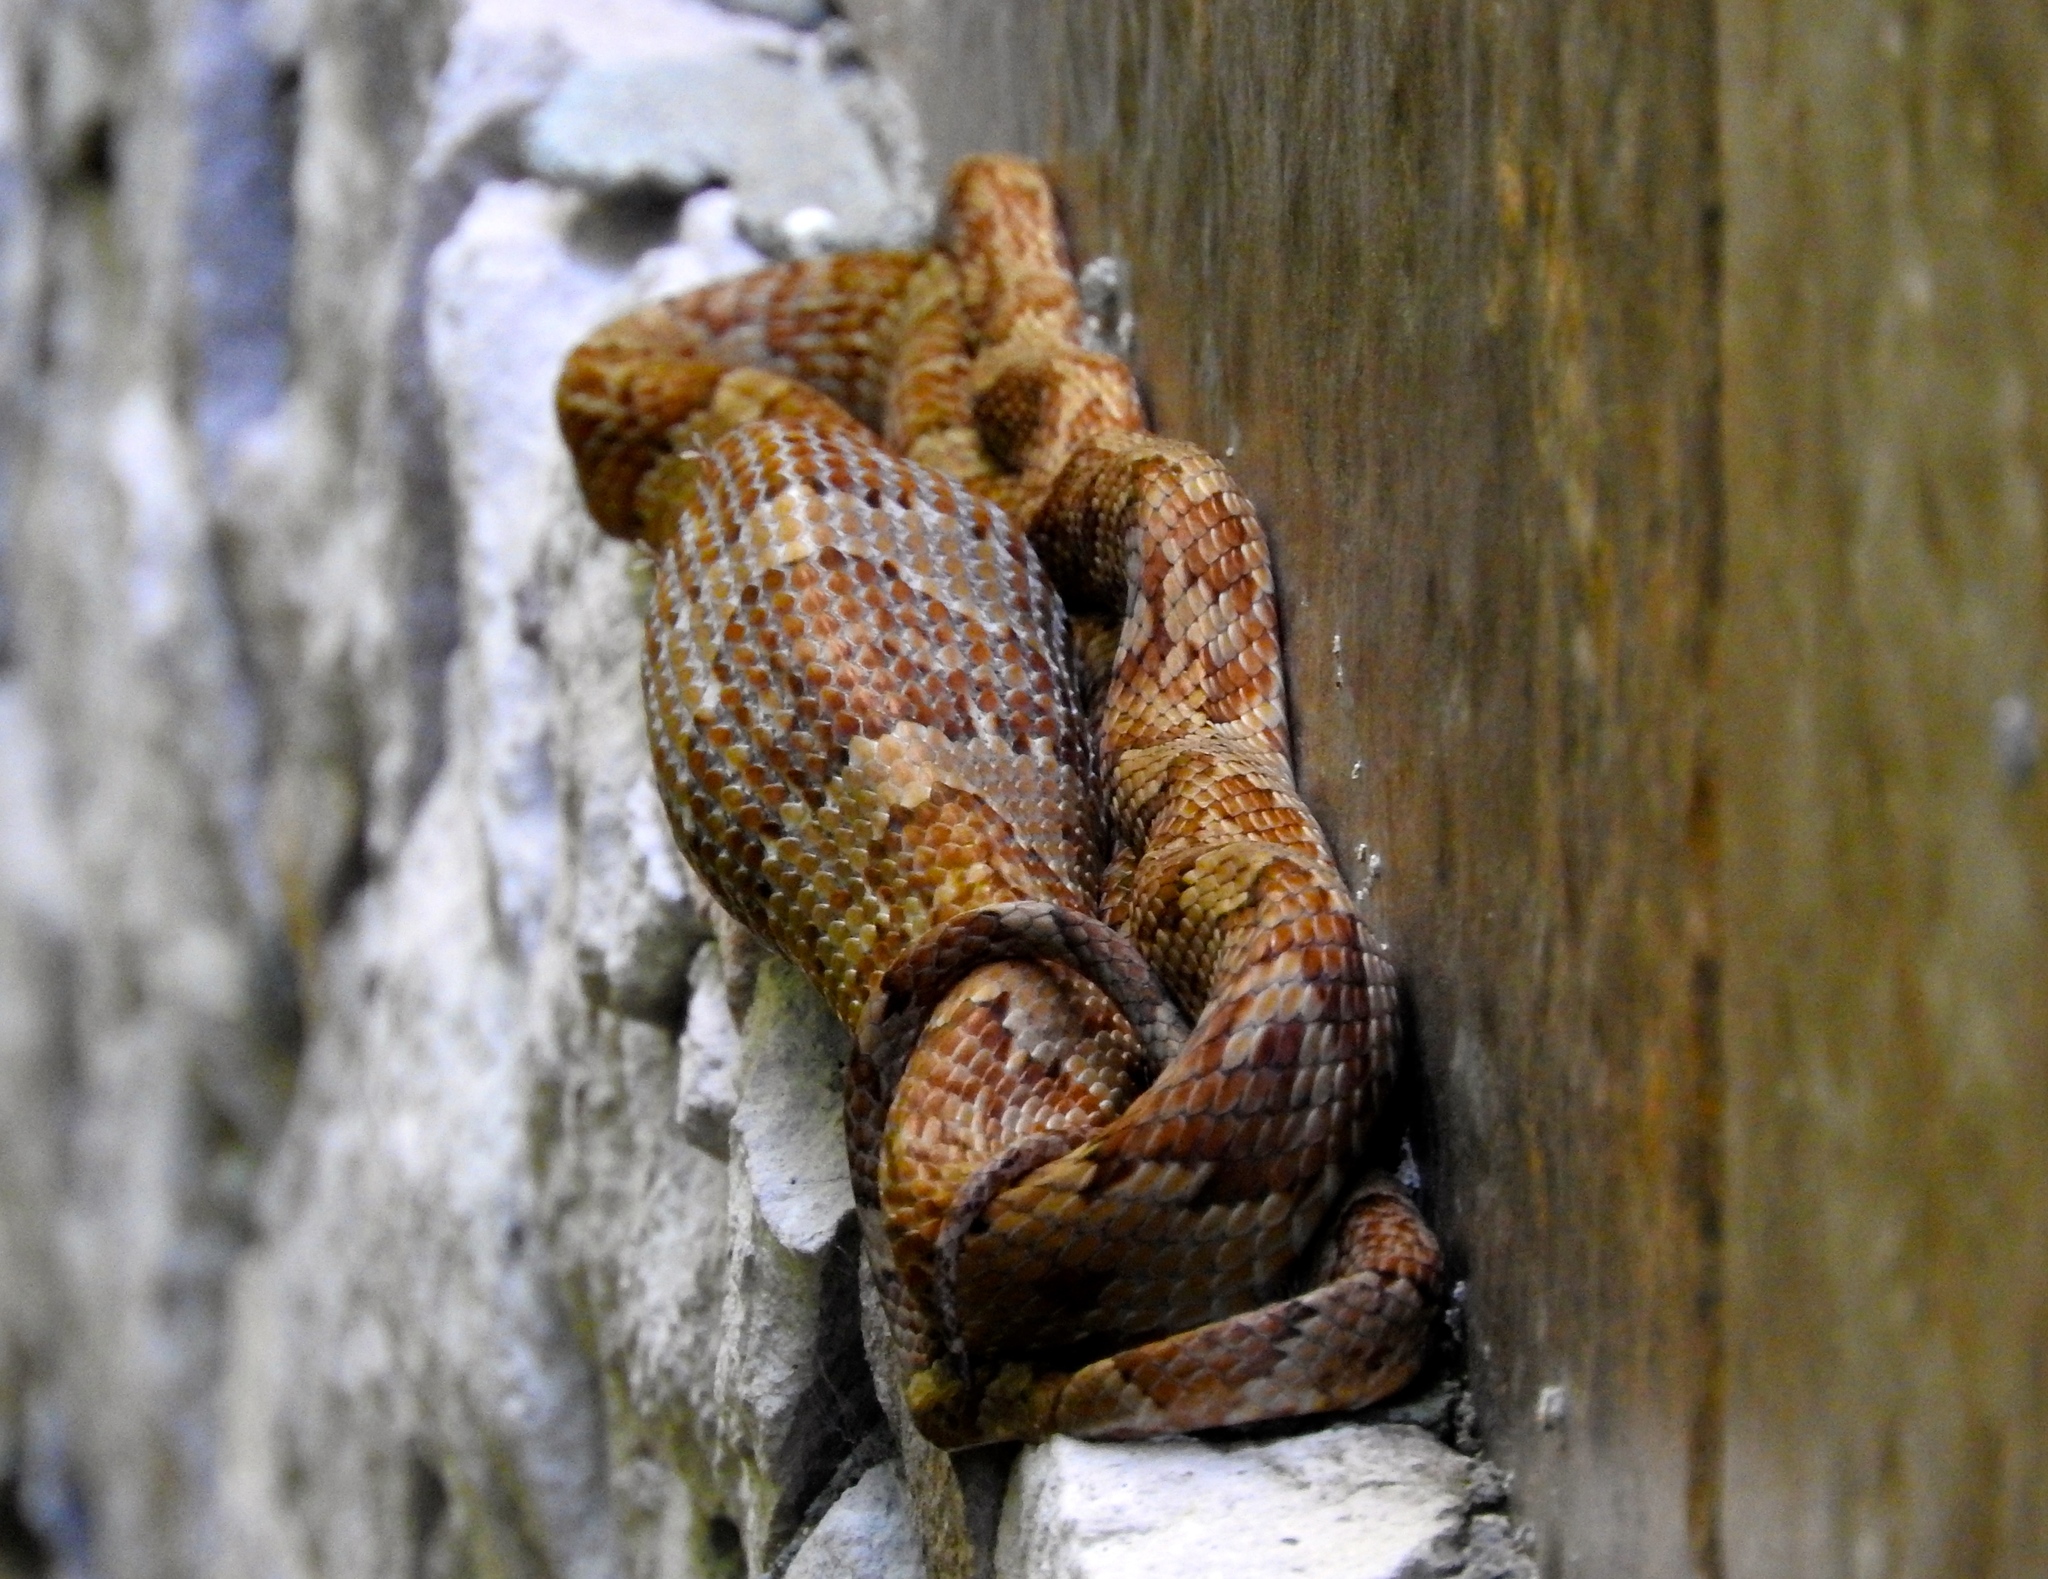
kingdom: Animalia
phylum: Chordata
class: Squamata
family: Colubridae
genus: Trimorphodon
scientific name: Trimorphodon paucimaculatus
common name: Sinaloan lyresnake
